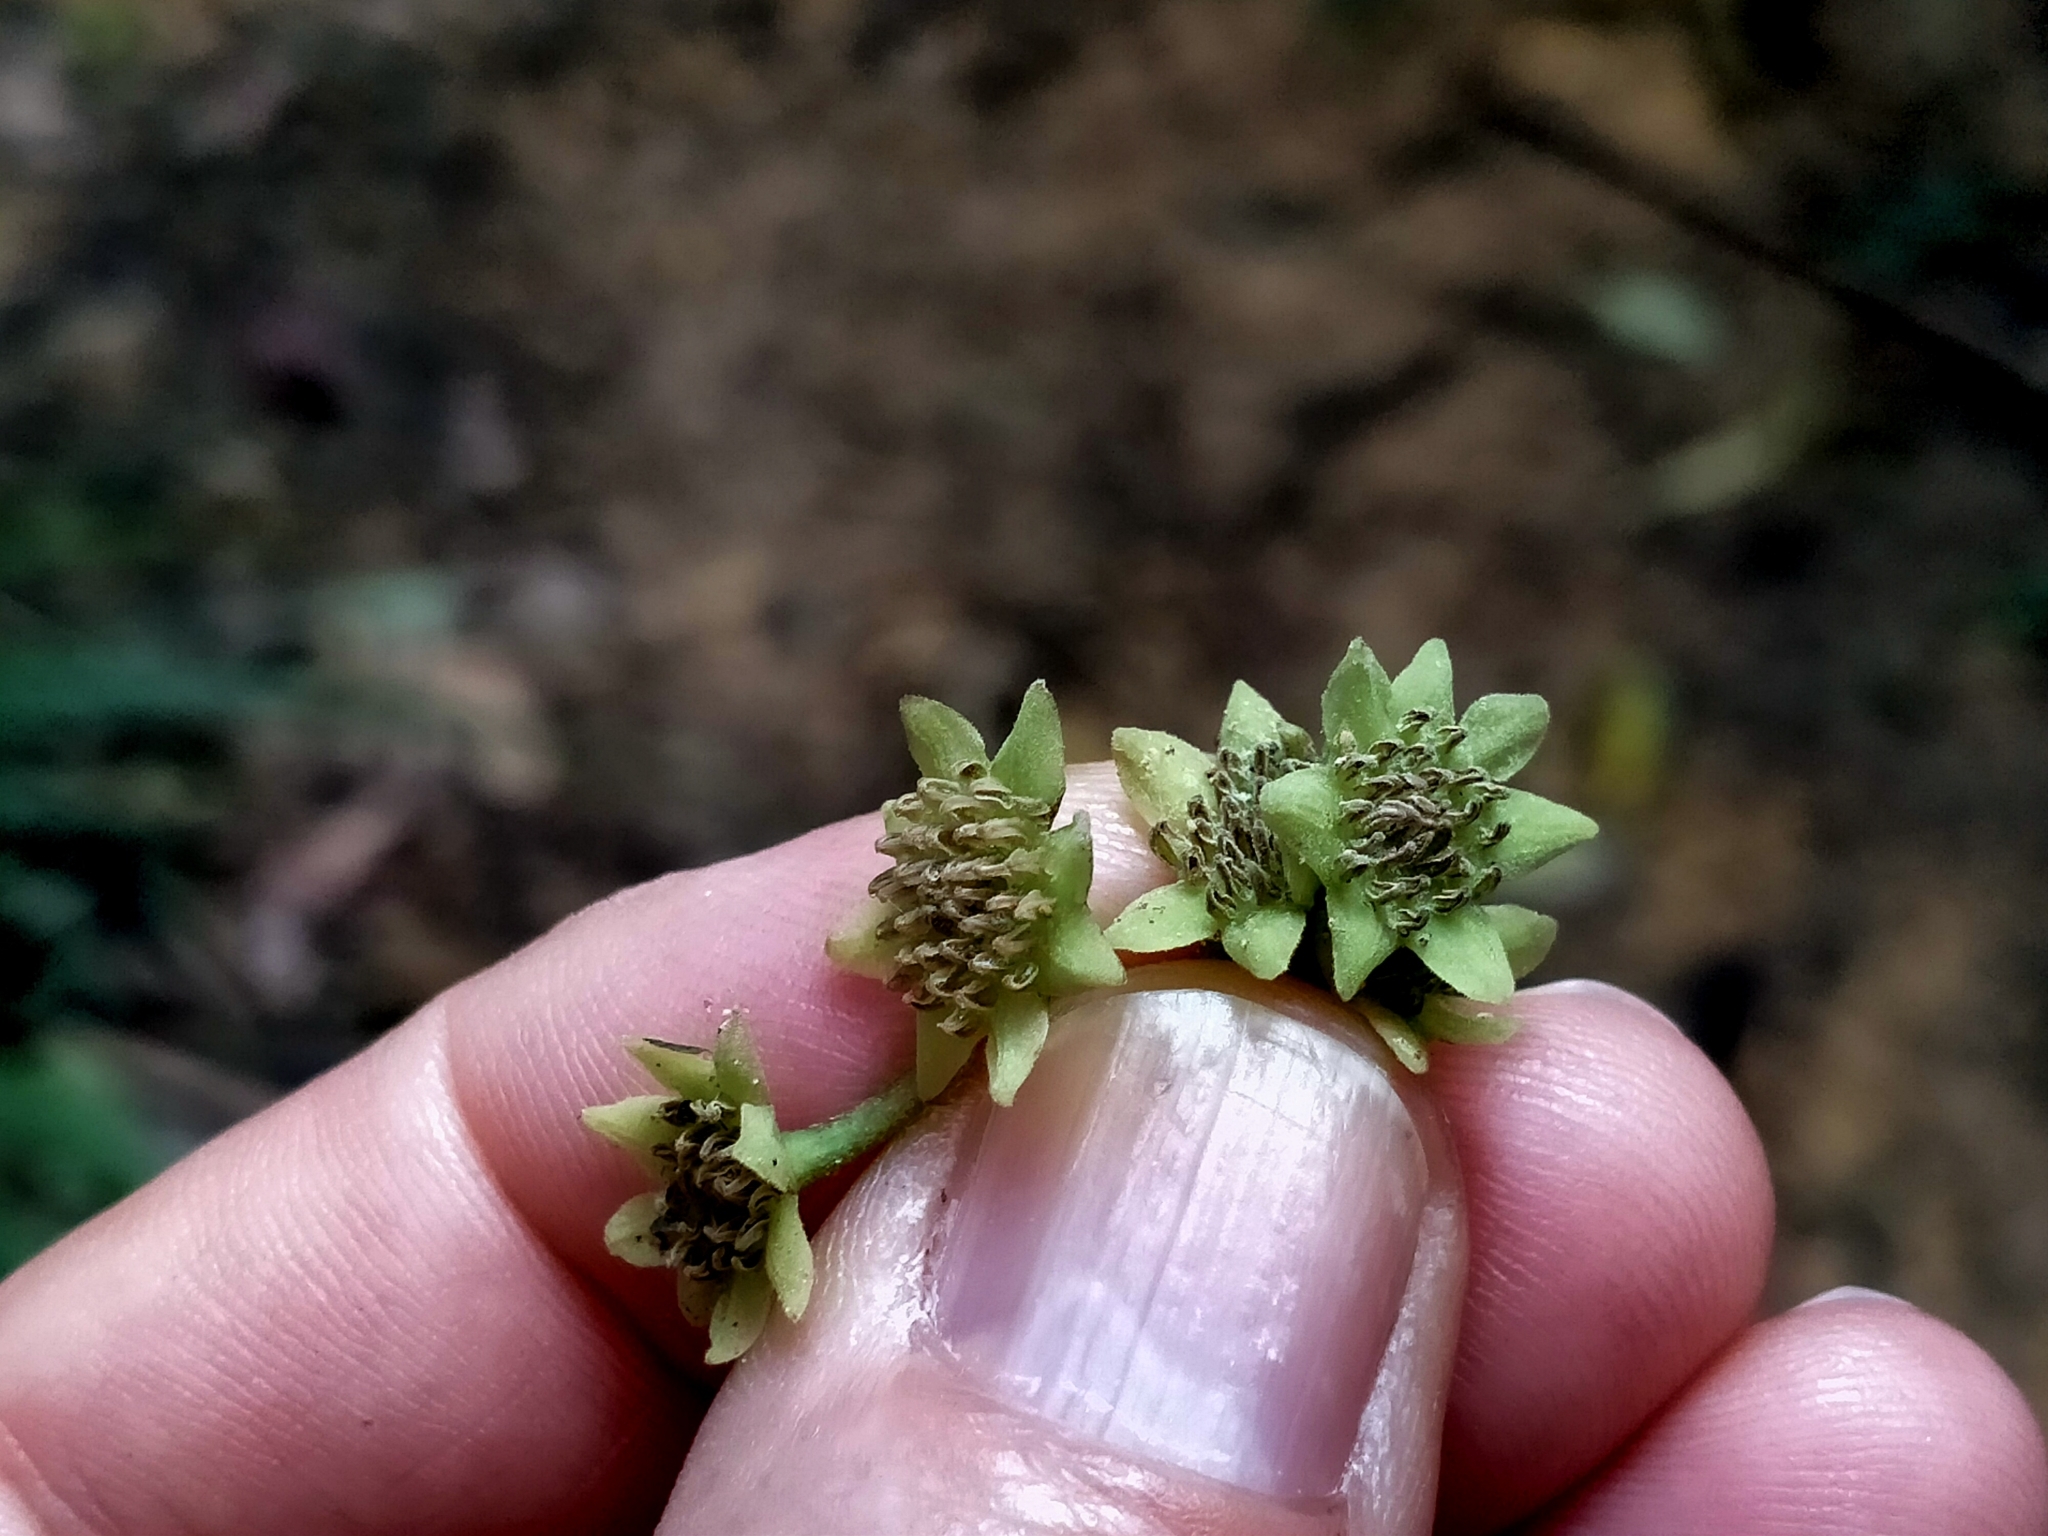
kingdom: Plantae
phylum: Tracheophyta
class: Magnoliopsida
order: Laurales
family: Monimiaceae
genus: Hedycarya
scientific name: Hedycarya arborea
